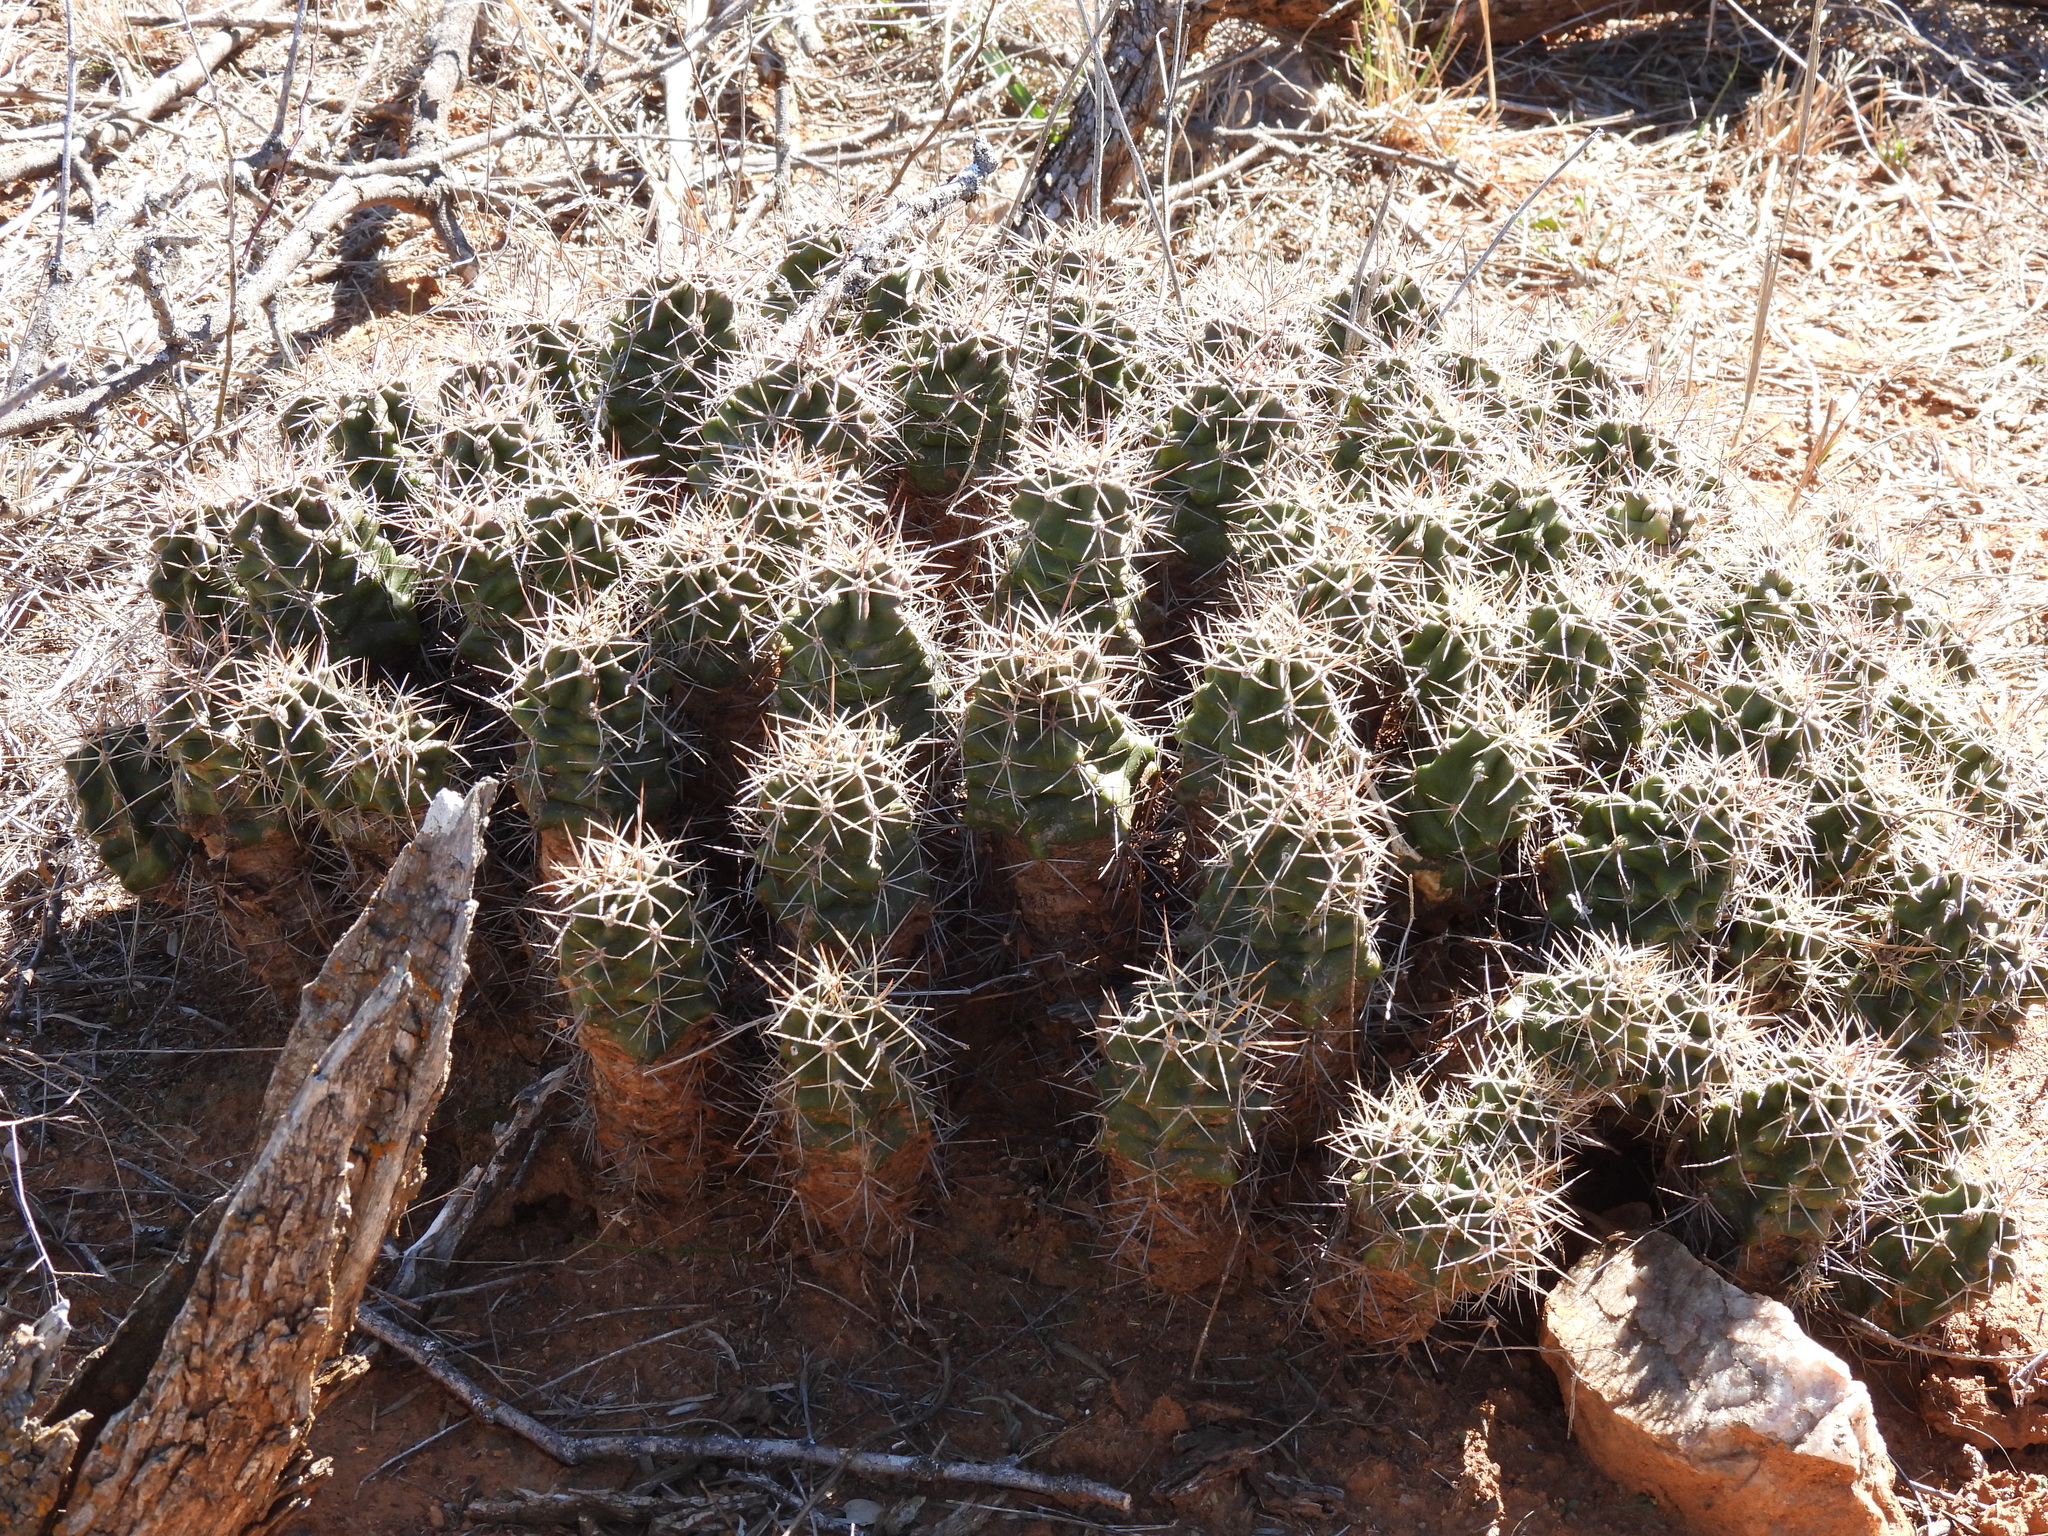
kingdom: Plantae
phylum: Tracheophyta
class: Magnoliopsida
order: Caryophyllales
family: Cactaceae
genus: Echinocereus
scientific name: Echinocereus coccineus
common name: Scarlet hedgehog cactus
